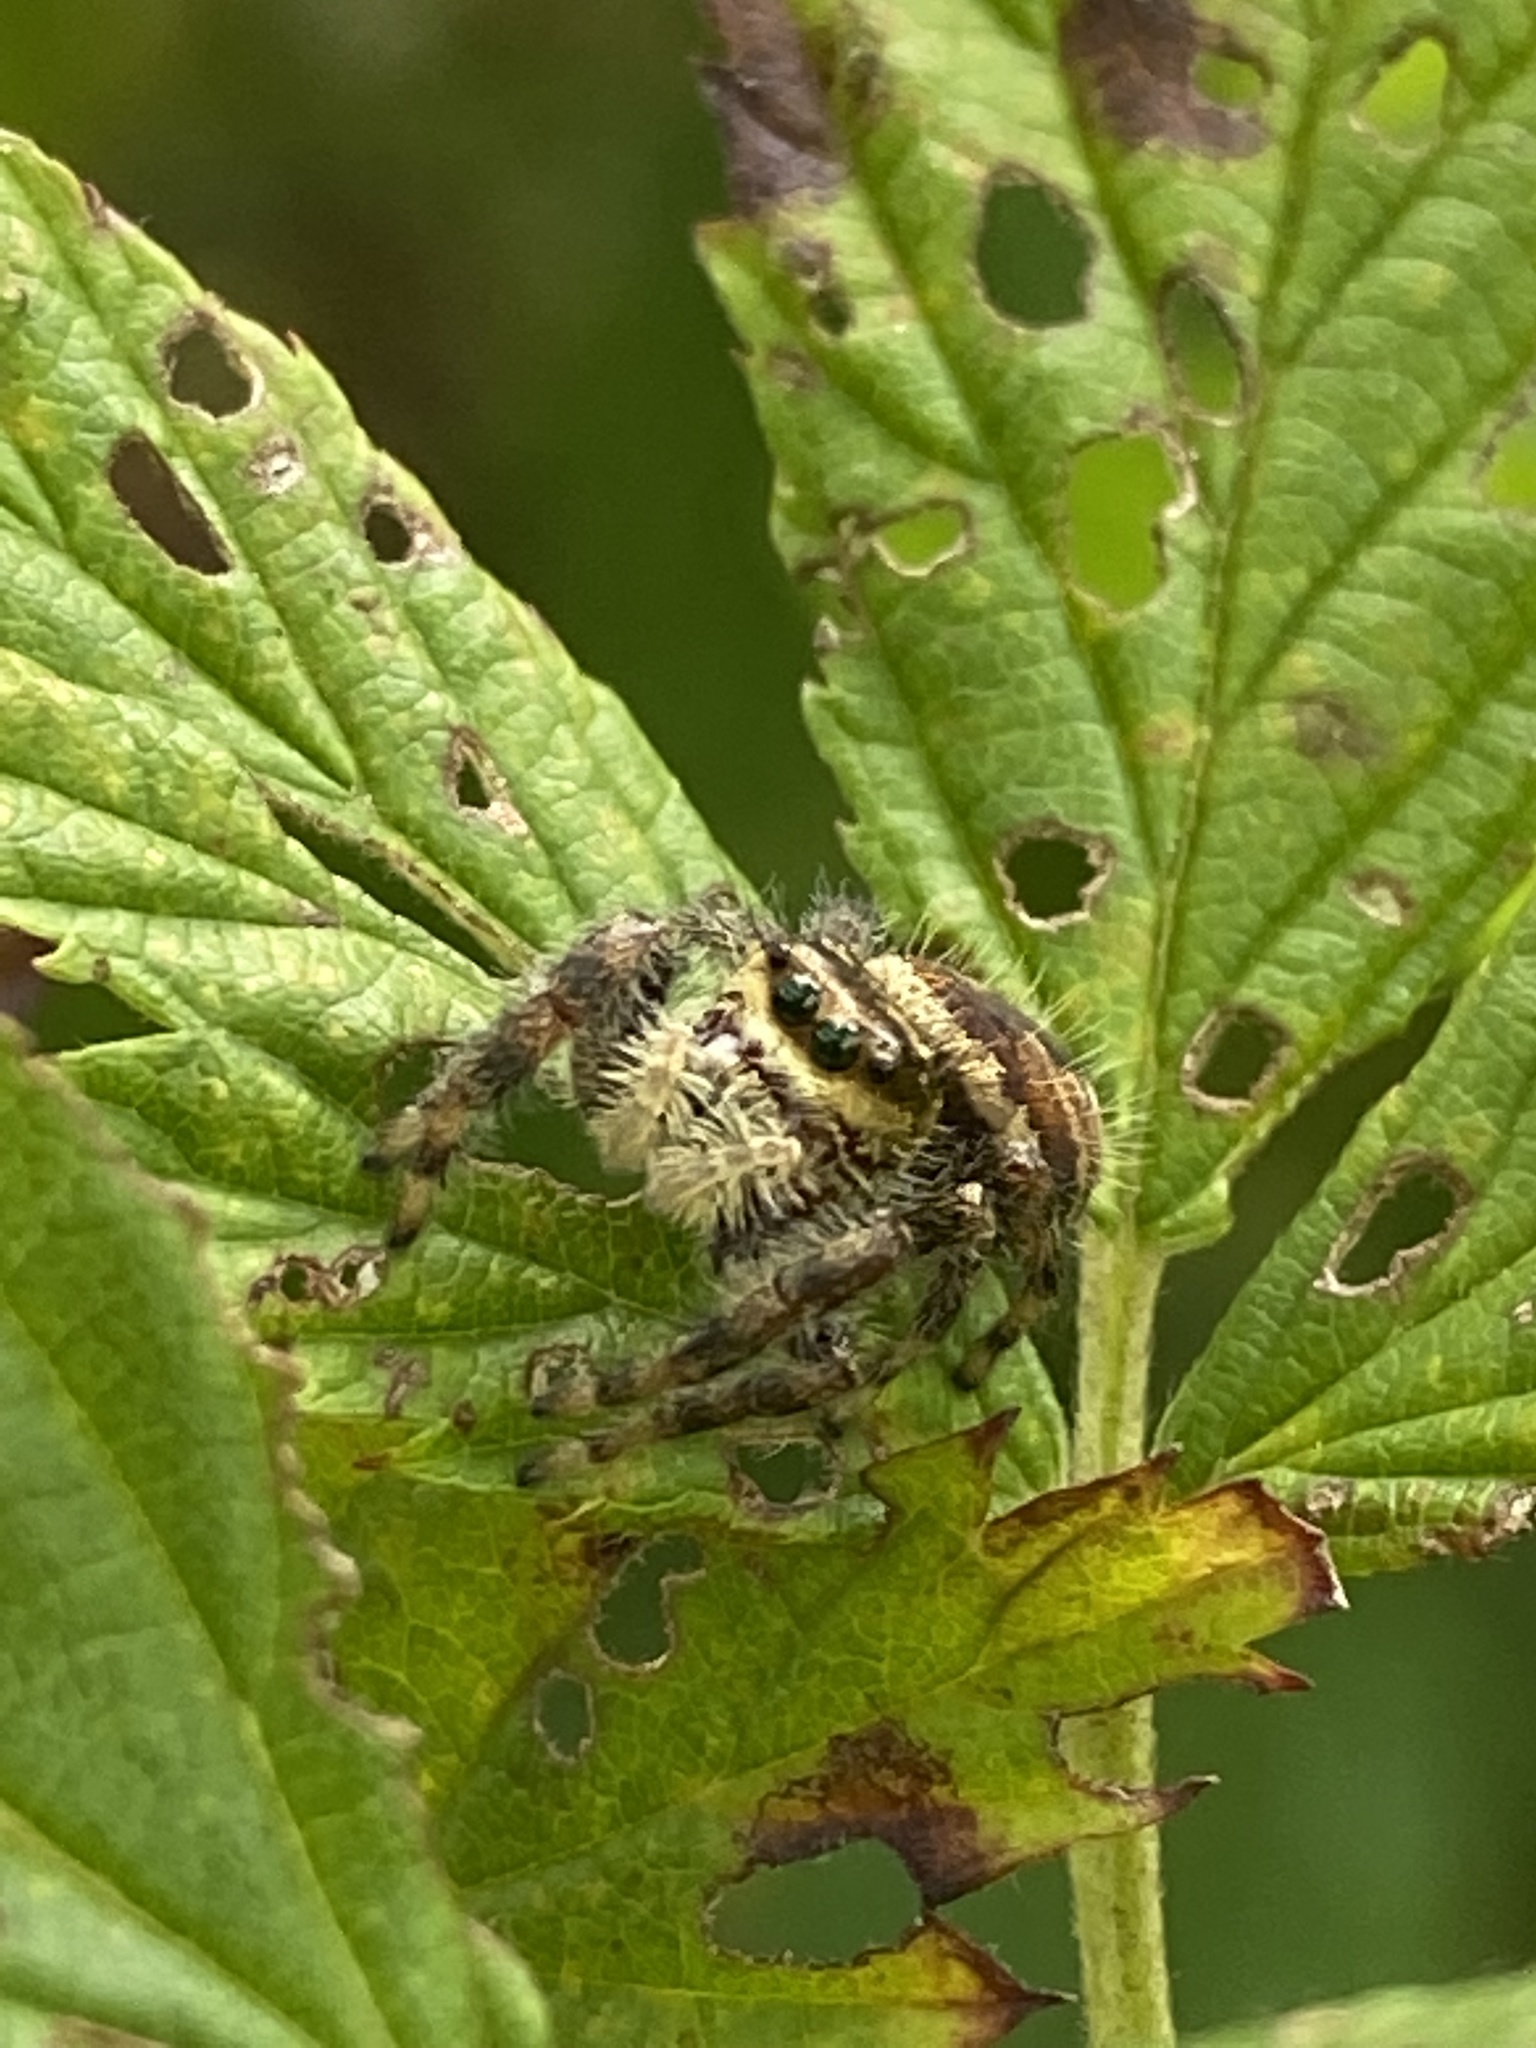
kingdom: Animalia
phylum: Arthropoda
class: Arachnida
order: Araneae
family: Salticidae
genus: Phidippus
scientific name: Phidippus clarus
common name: Brilliant jumping spider
